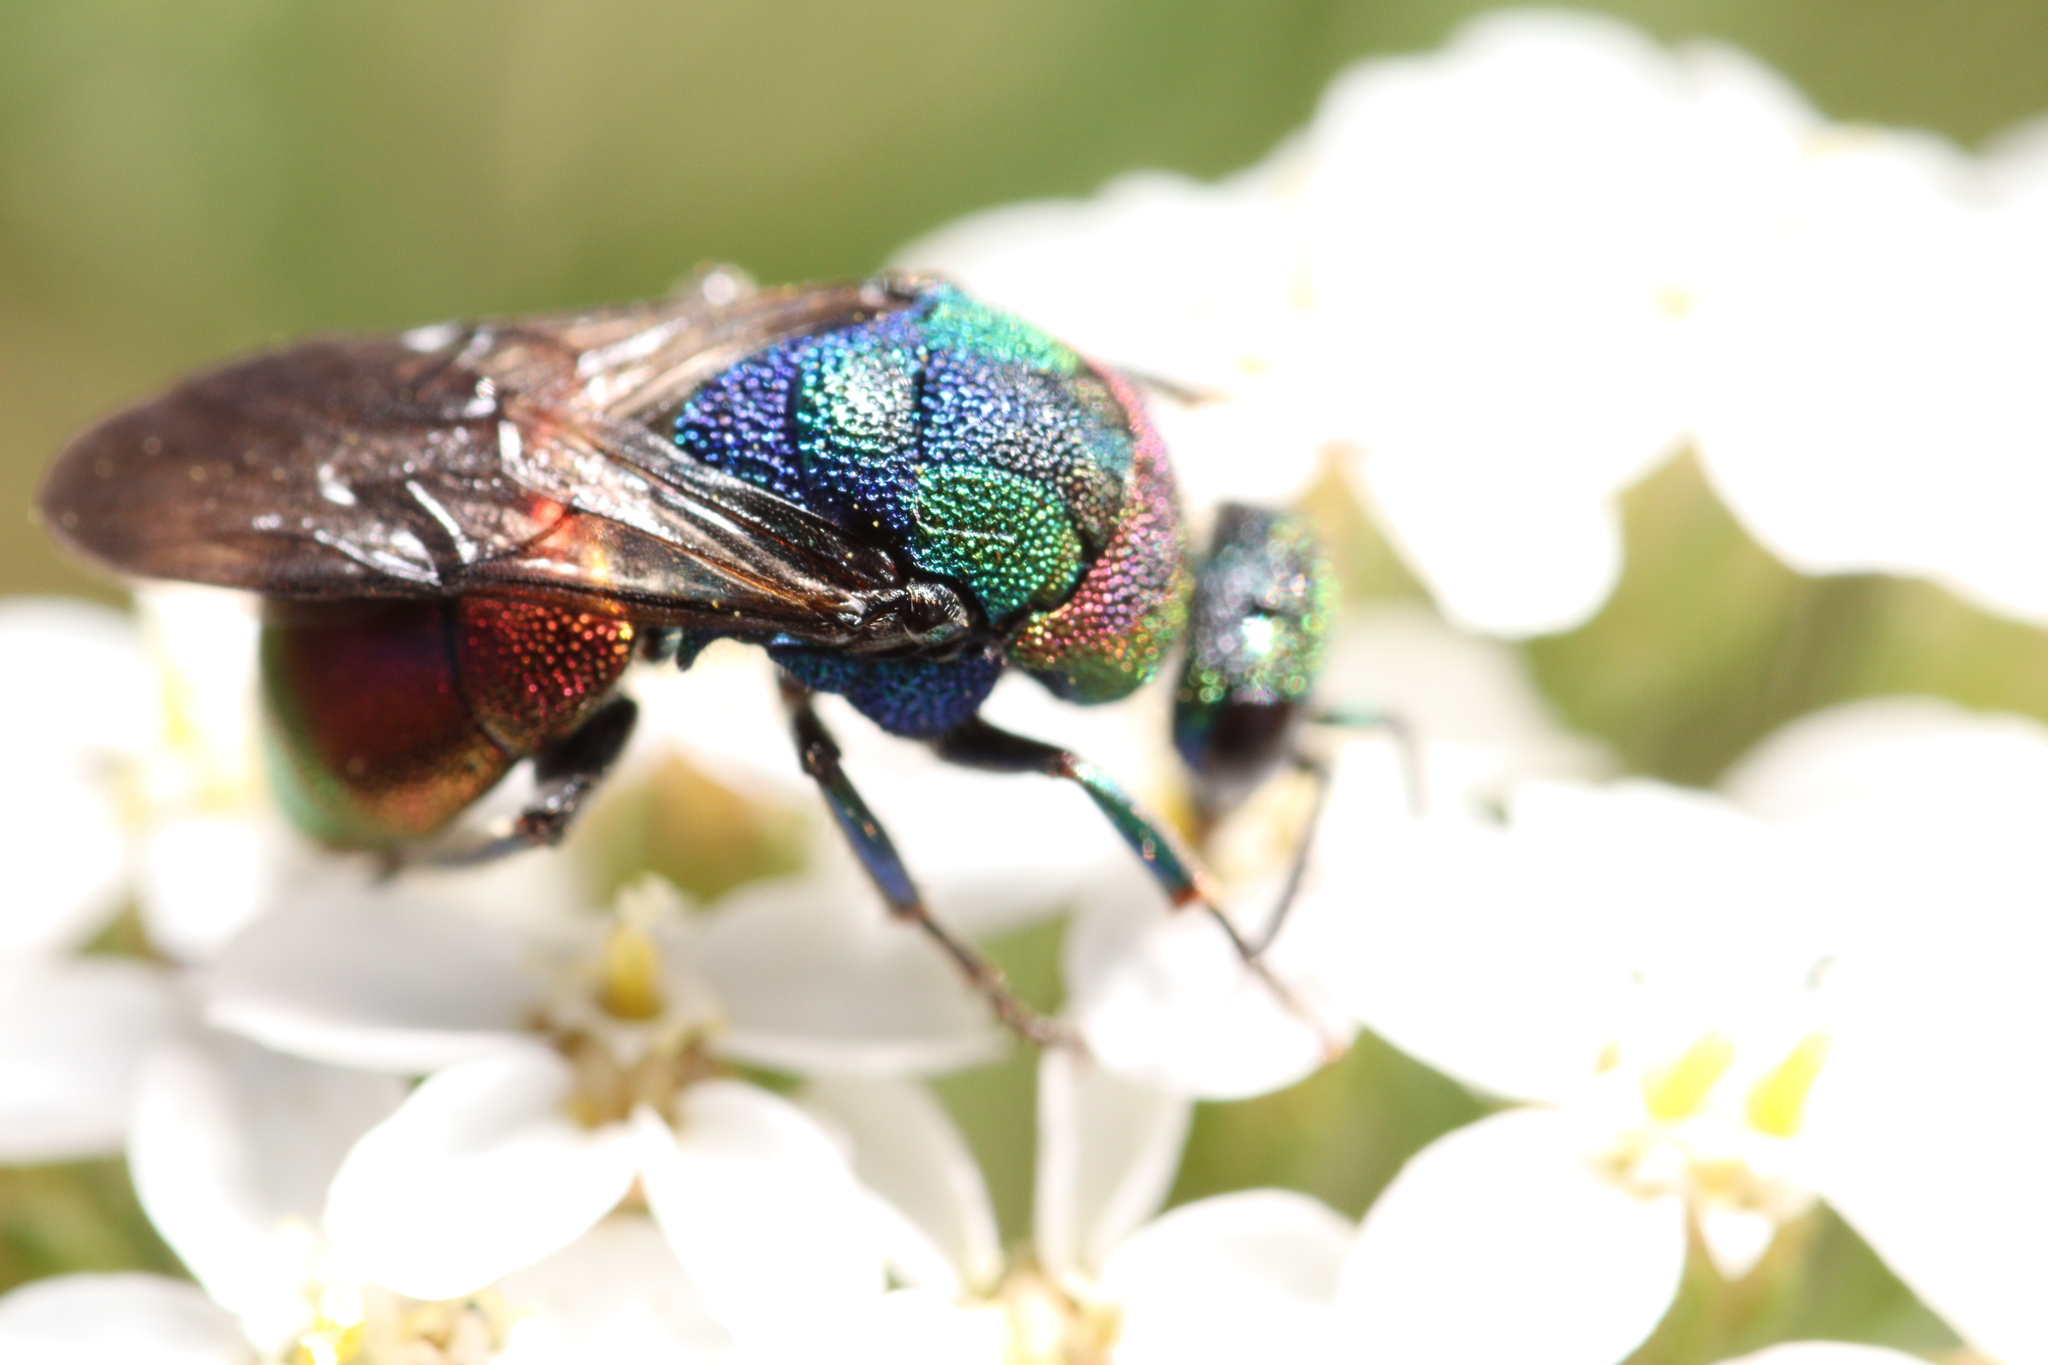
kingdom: Animalia
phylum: Arthropoda
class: Insecta
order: Hymenoptera
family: Chrysididae
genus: Hedychrum
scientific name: Hedychrum rutilans
